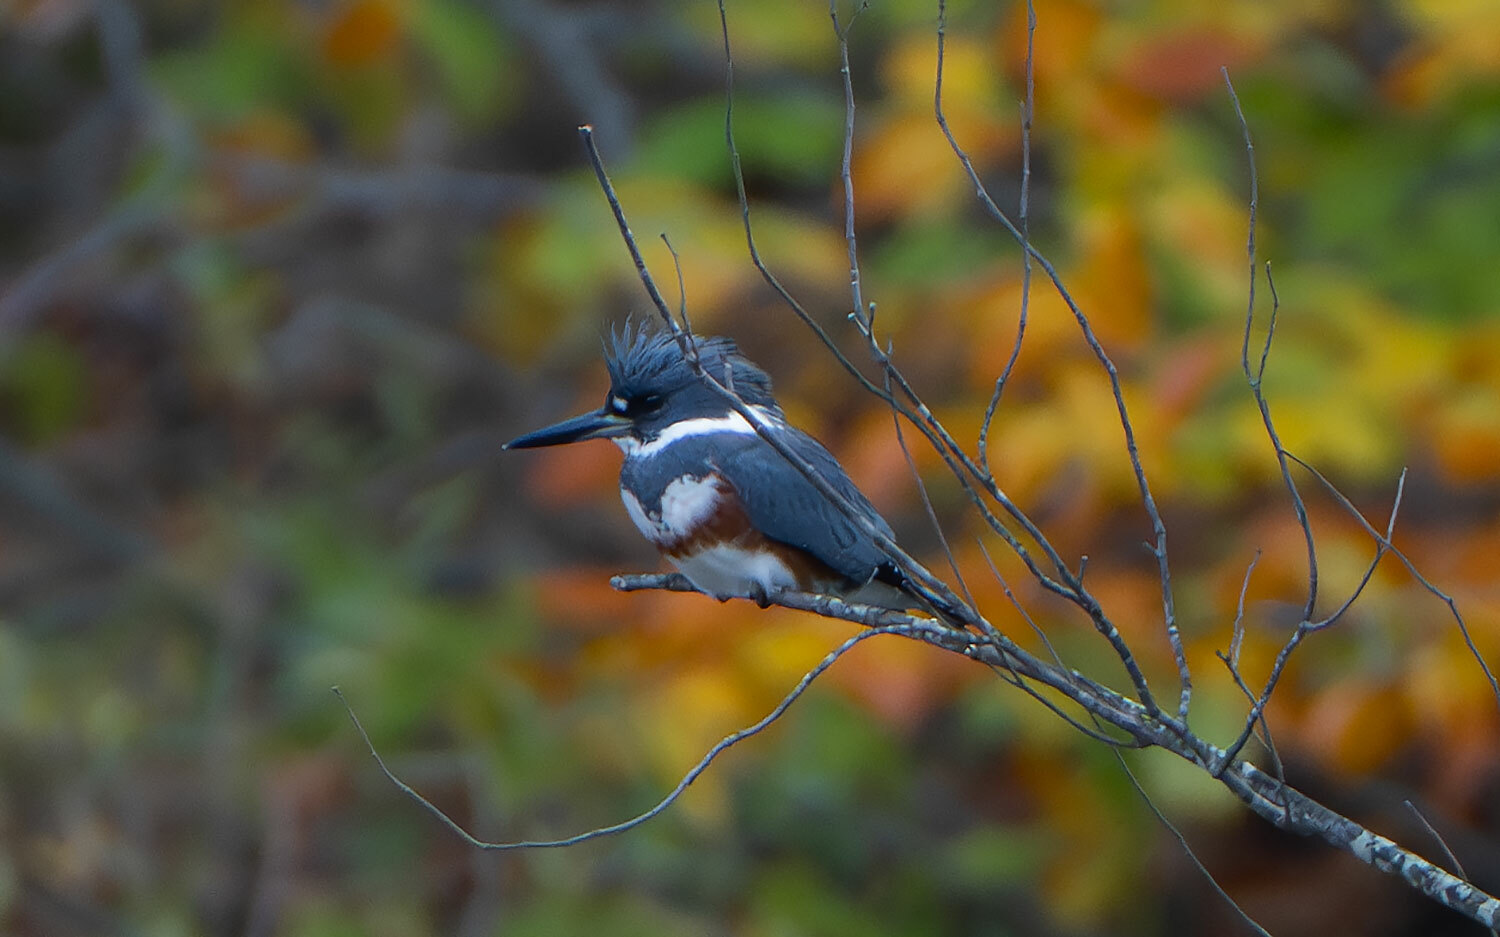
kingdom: Animalia
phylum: Chordata
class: Aves
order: Coraciiformes
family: Alcedinidae
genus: Megaceryle
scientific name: Megaceryle alcyon
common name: Belted kingfisher
